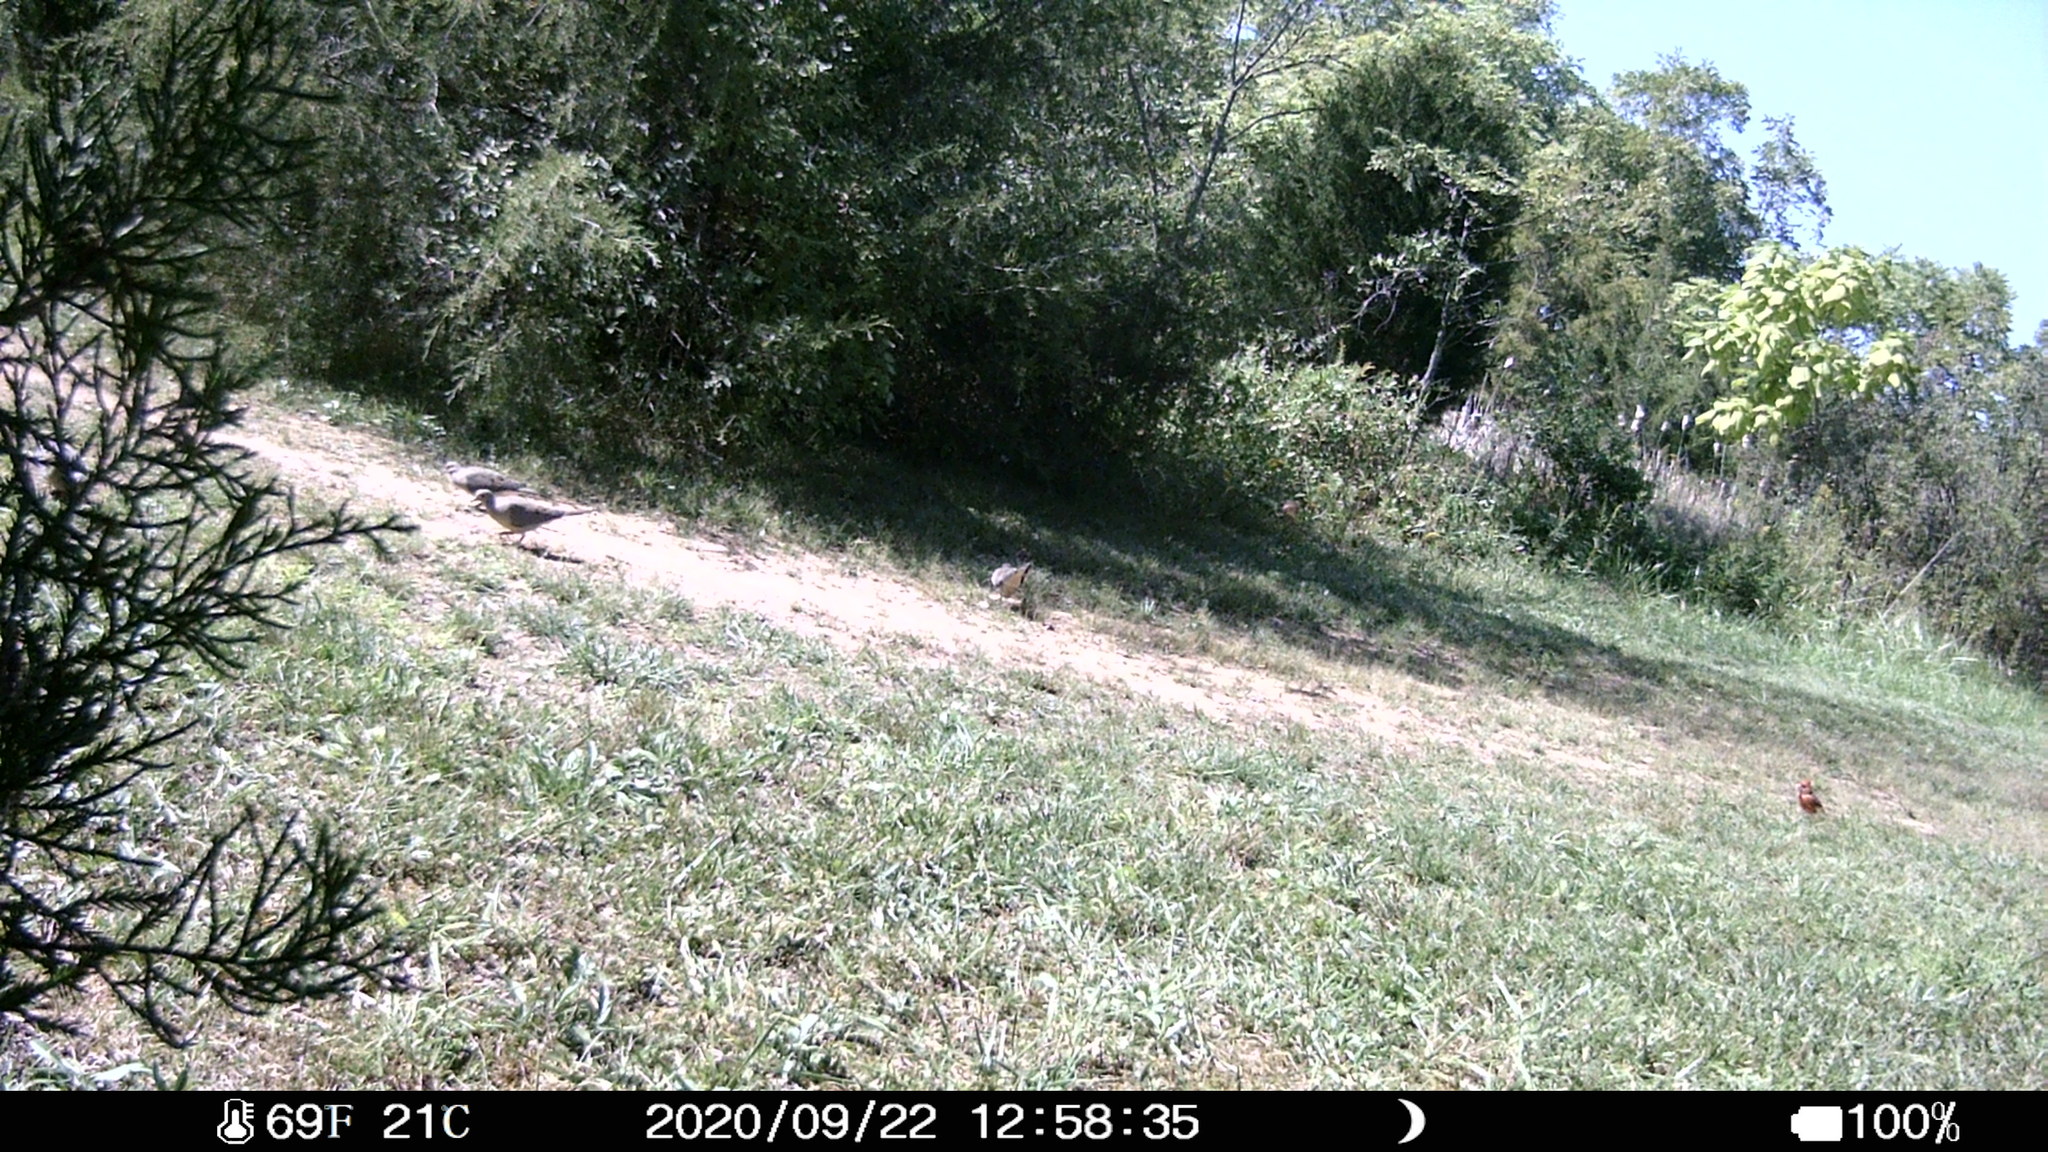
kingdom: Animalia
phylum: Chordata
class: Aves
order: Columbiformes
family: Columbidae
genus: Zenaida
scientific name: Zenaida macroura
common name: Mourning dove
